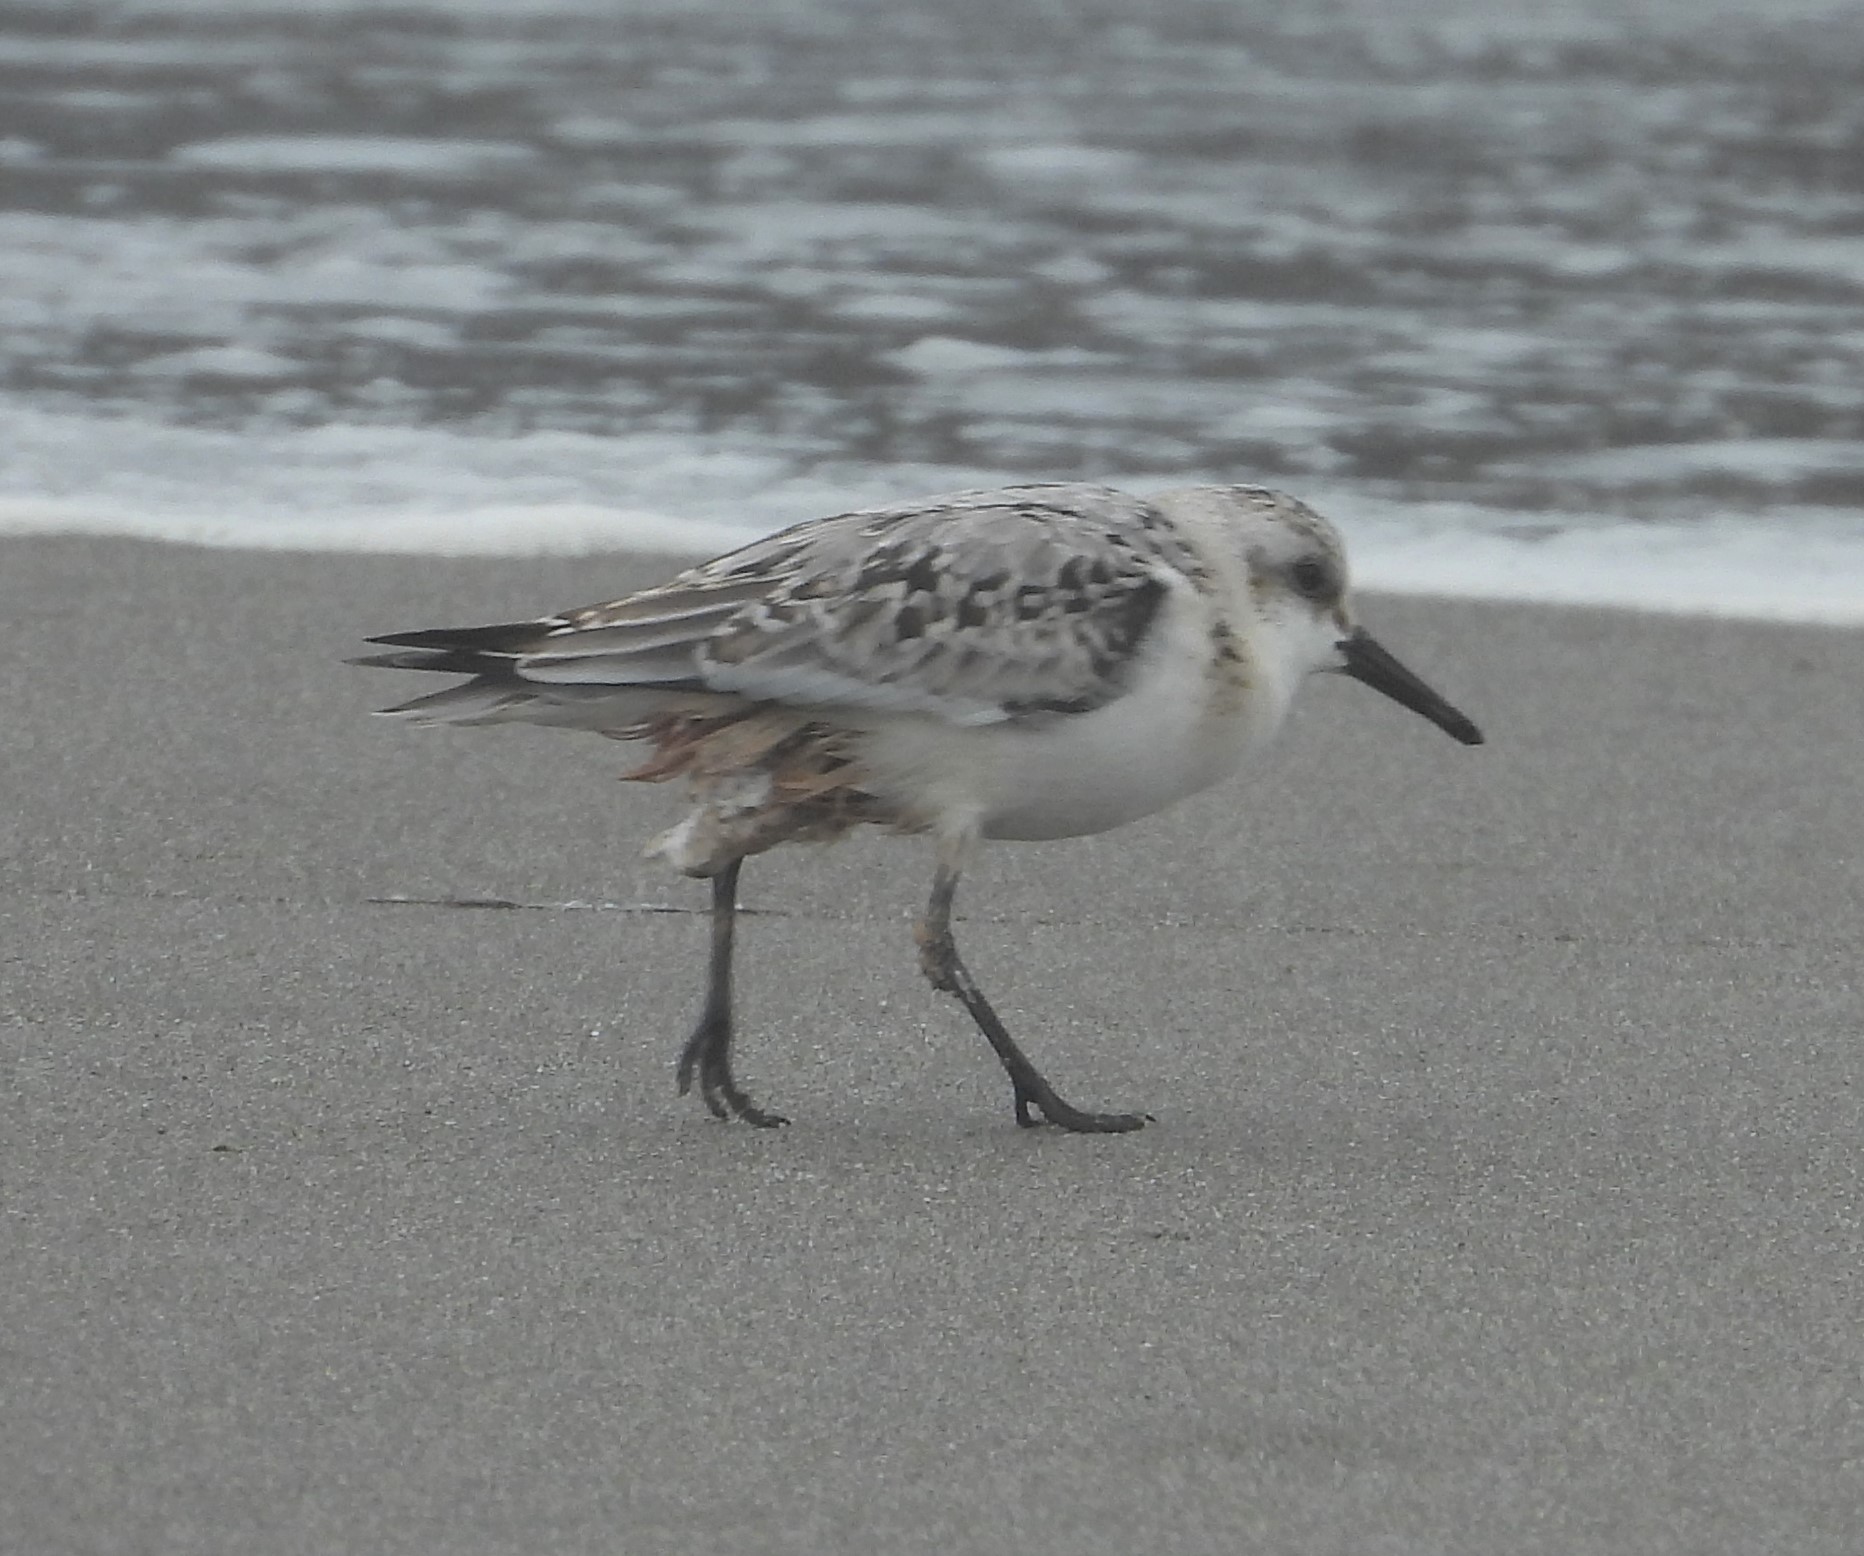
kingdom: Animalia
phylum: Chordata
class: Aves
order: Charadriiformes
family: Scolopacidae
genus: Calidris
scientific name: Calidris alba
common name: Sanderling
